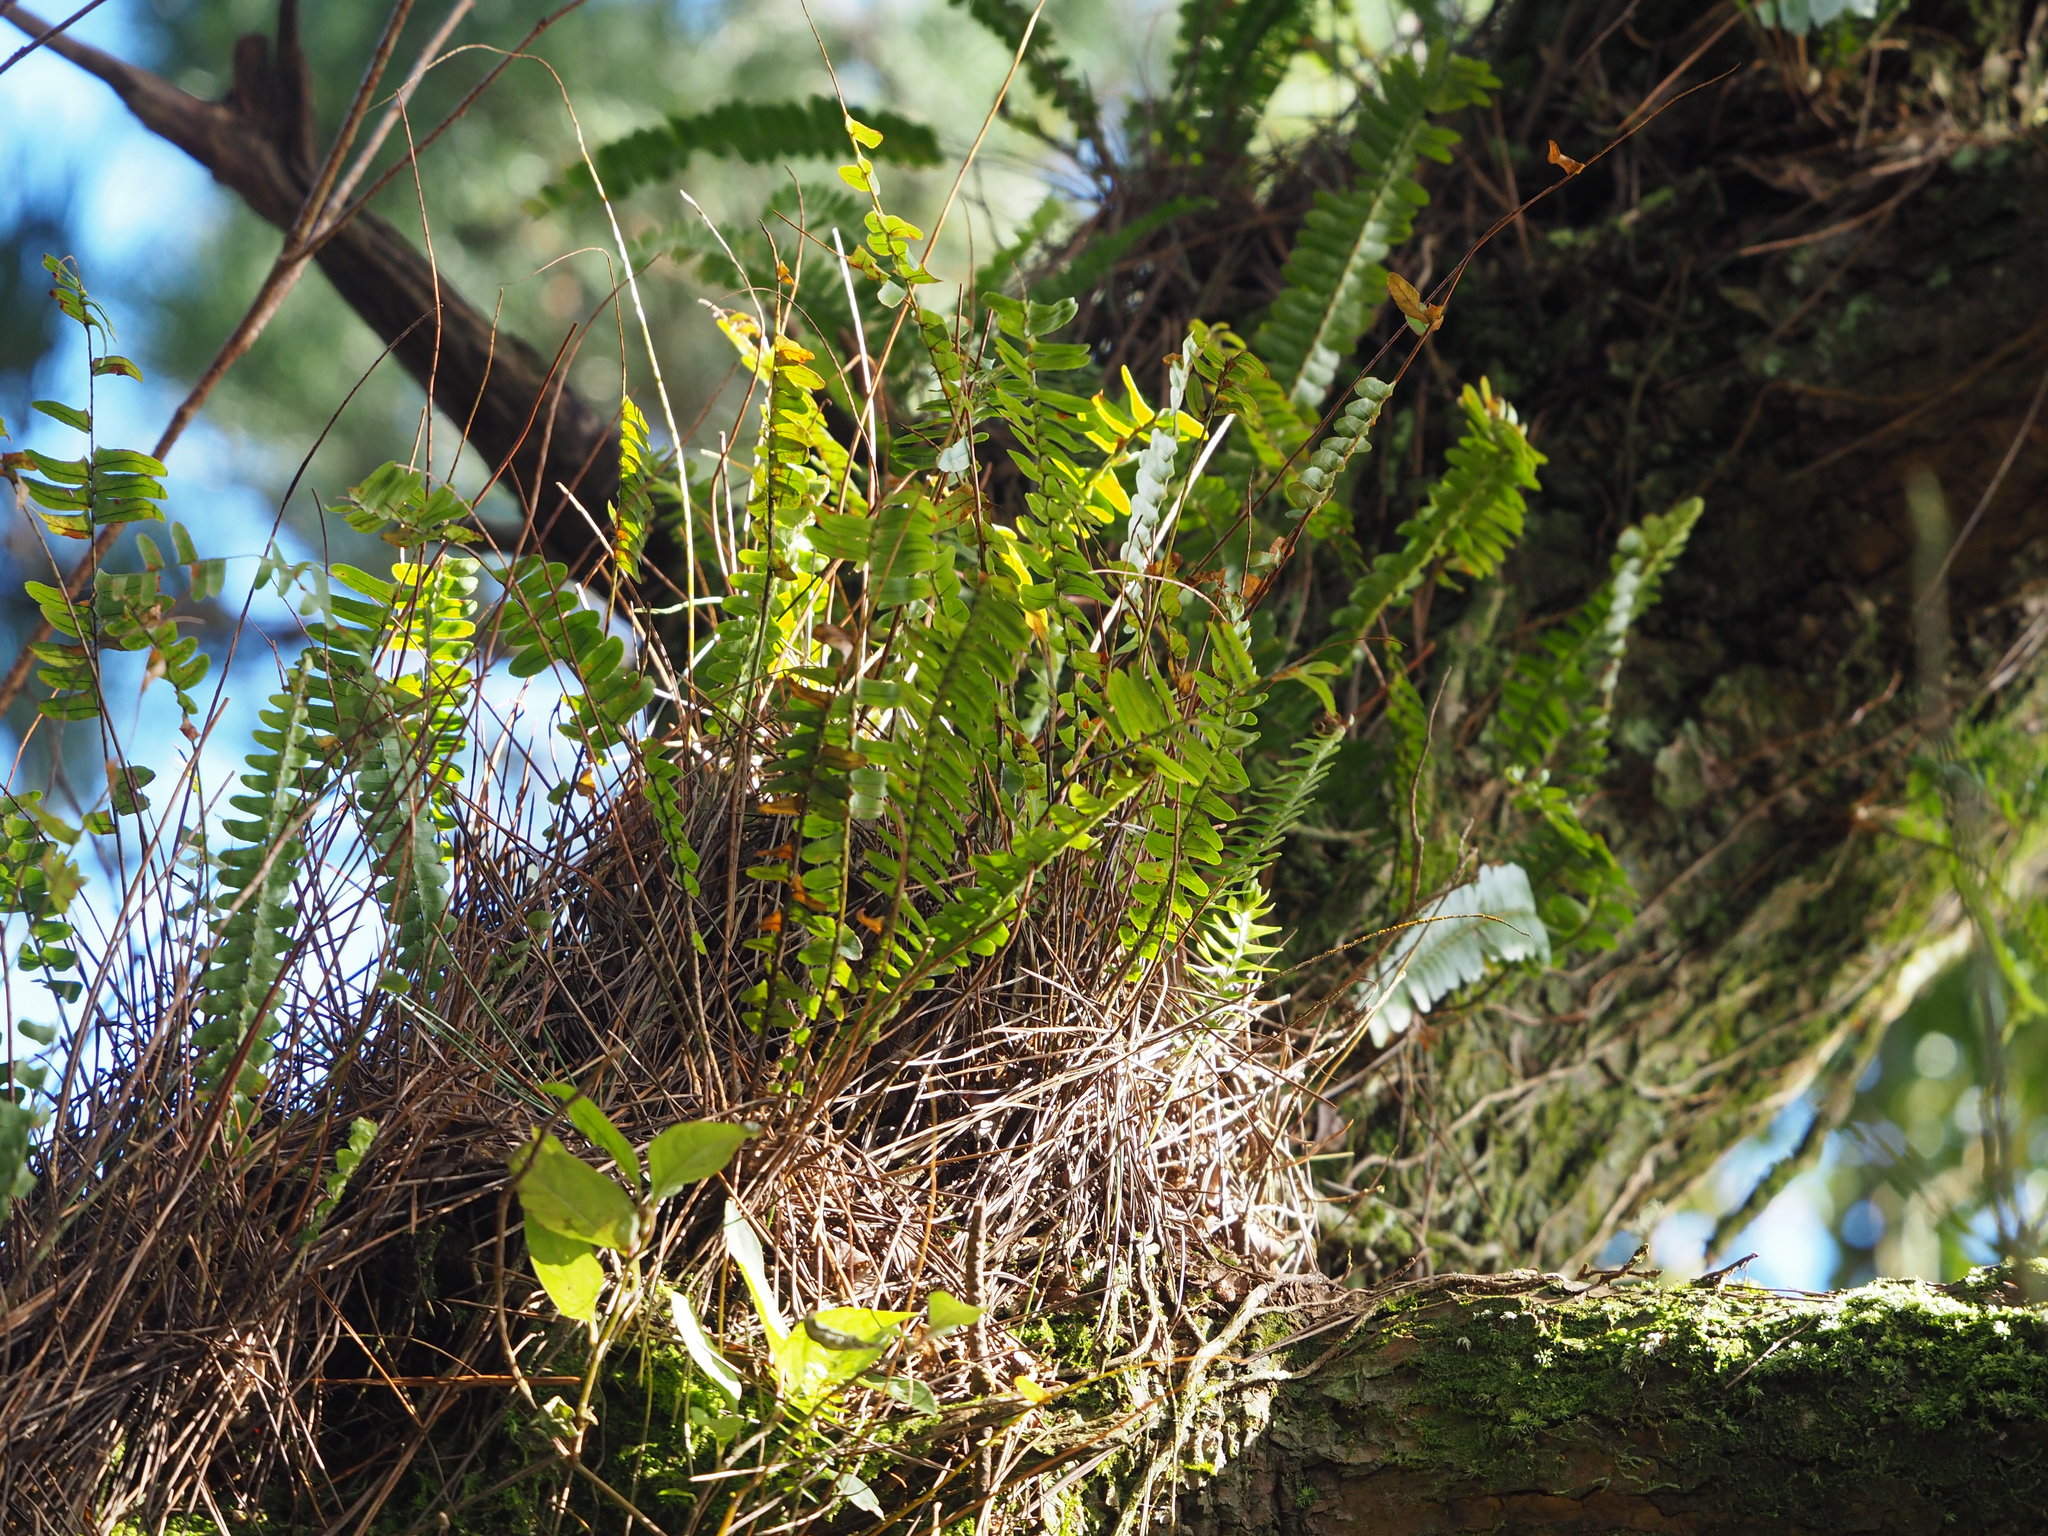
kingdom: Plantae
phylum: Tracheophyta
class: Polypodiopsida
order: Polypodiales
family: Nephrolepidaceae
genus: Nephrolepis
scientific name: Nephrolepis cordifolia
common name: Narrow swordfern
